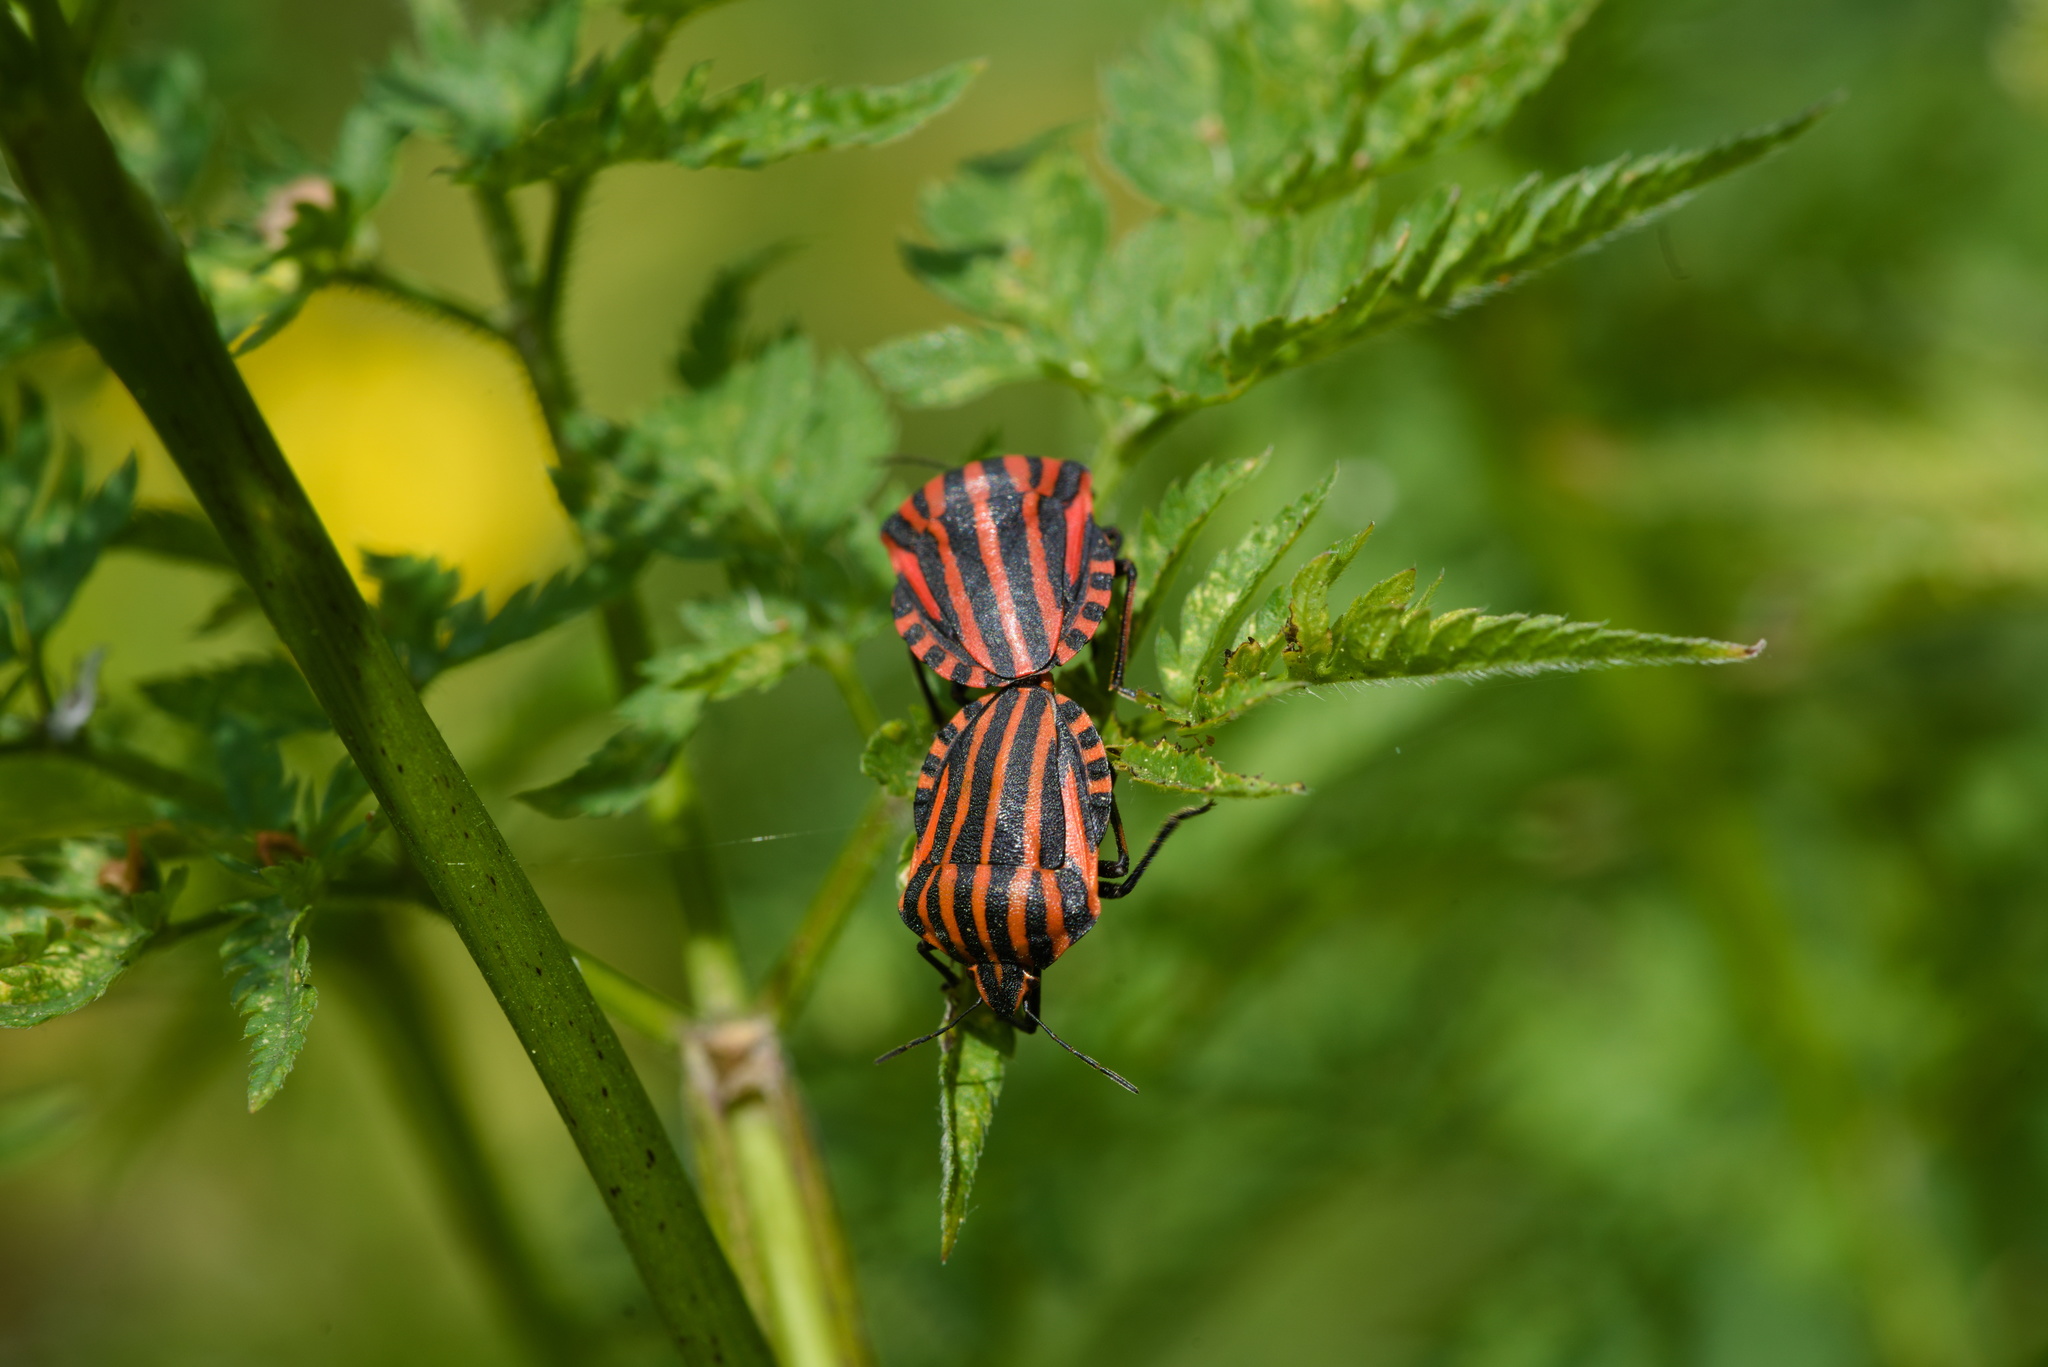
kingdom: Animalia
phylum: Arthropoda
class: Insecta
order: Hemiptera
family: Pentatomidae
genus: Graphosoma
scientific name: Graphosoma italicum
